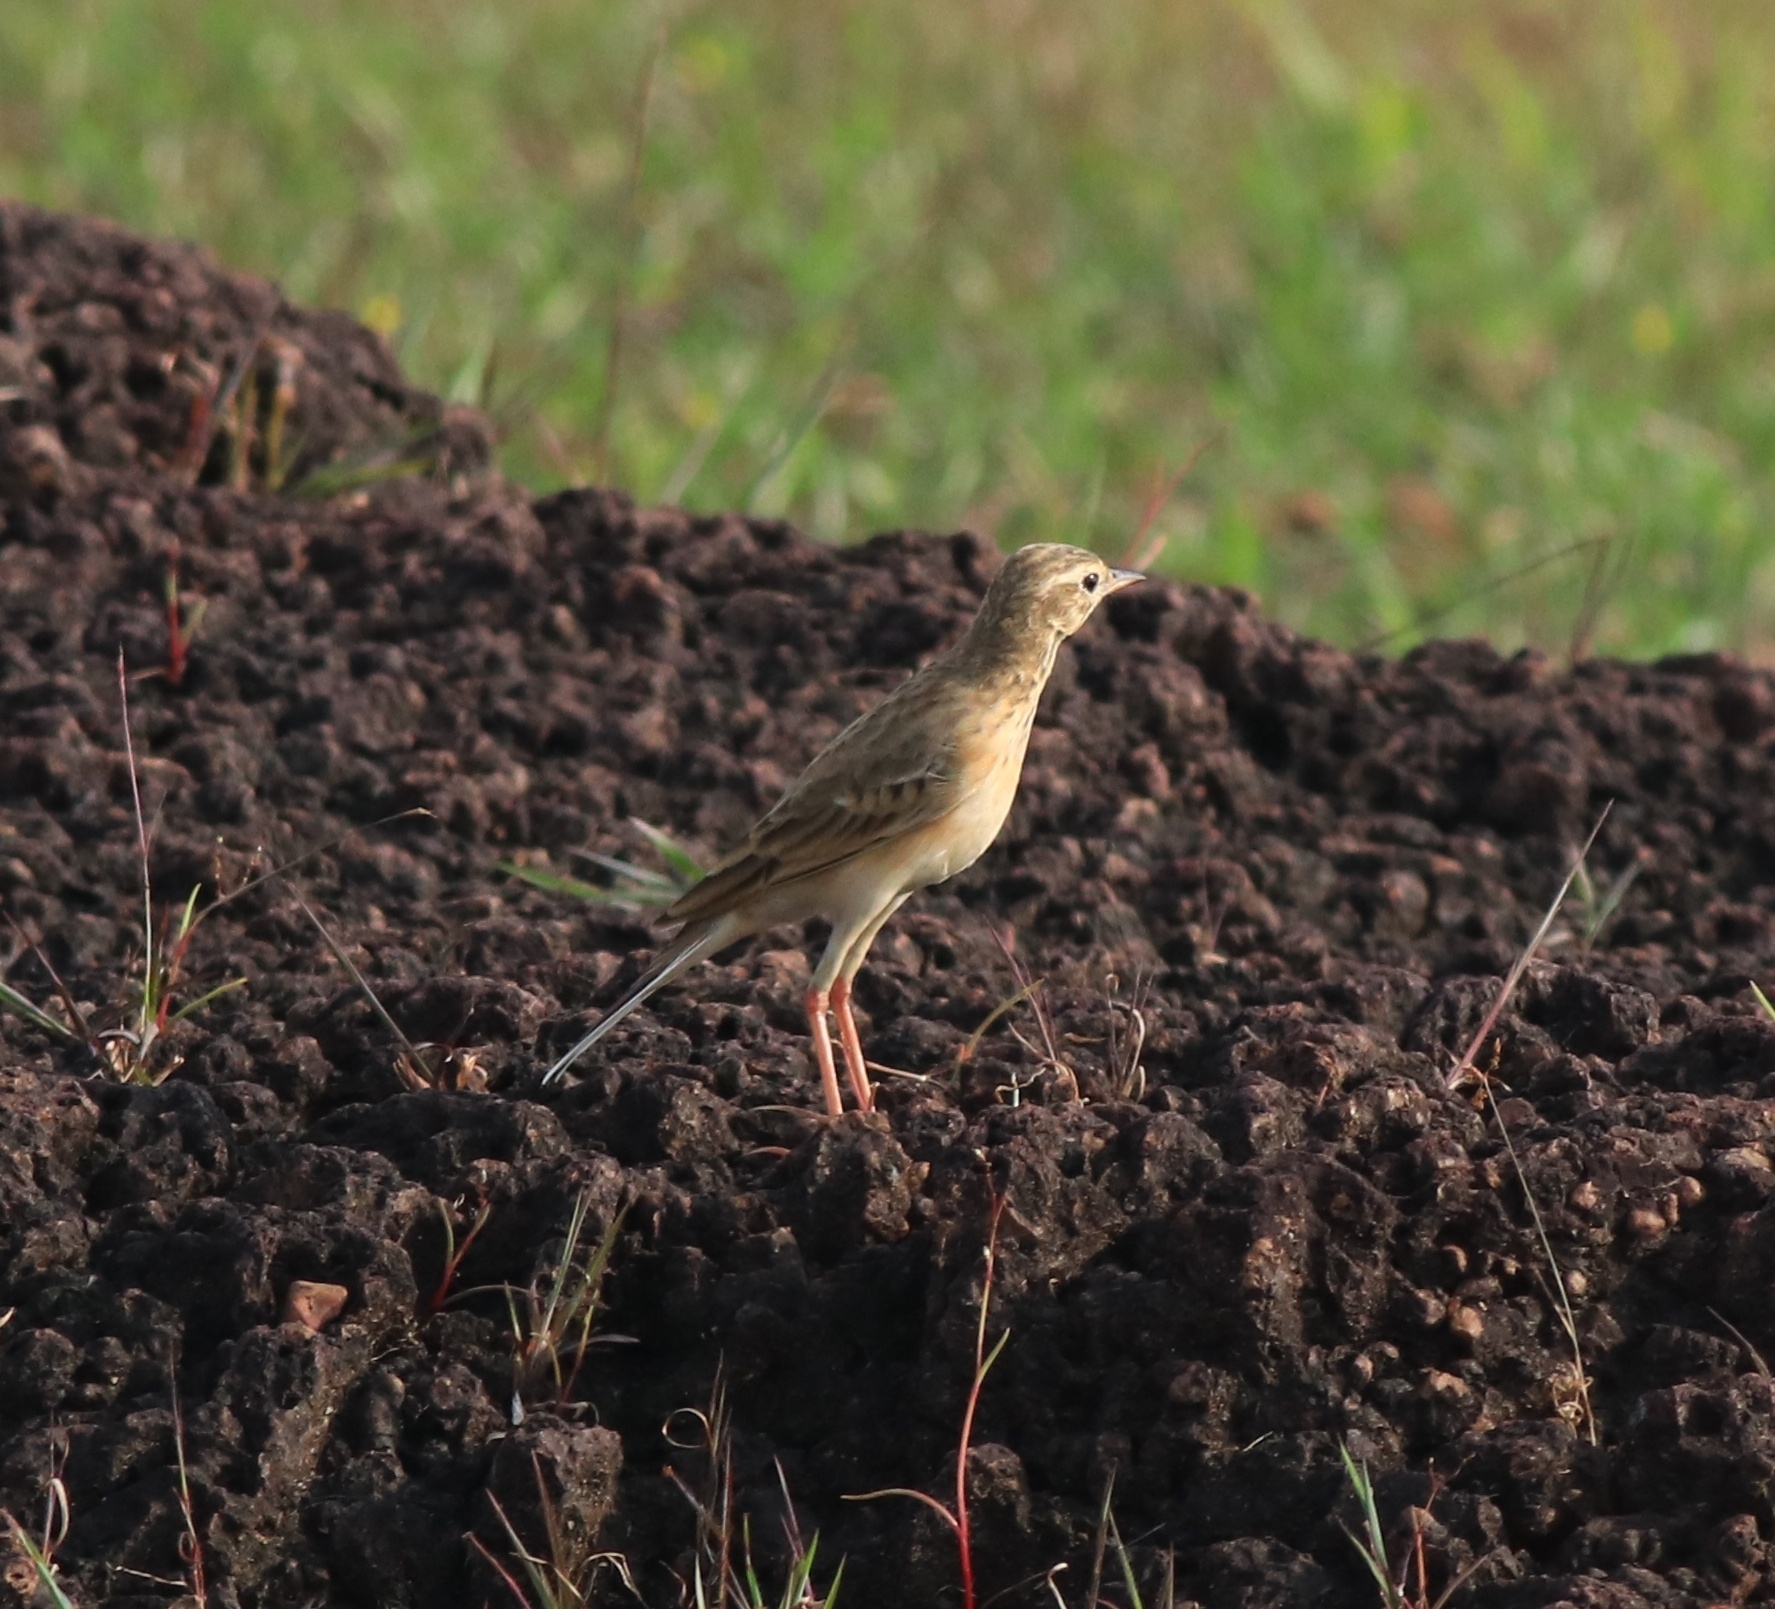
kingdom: Animalia
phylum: Chordata
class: Aves
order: Passeriformes
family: Motacillidae
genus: Anthus
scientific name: Anthus rufulus
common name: Paddyfield pipit
